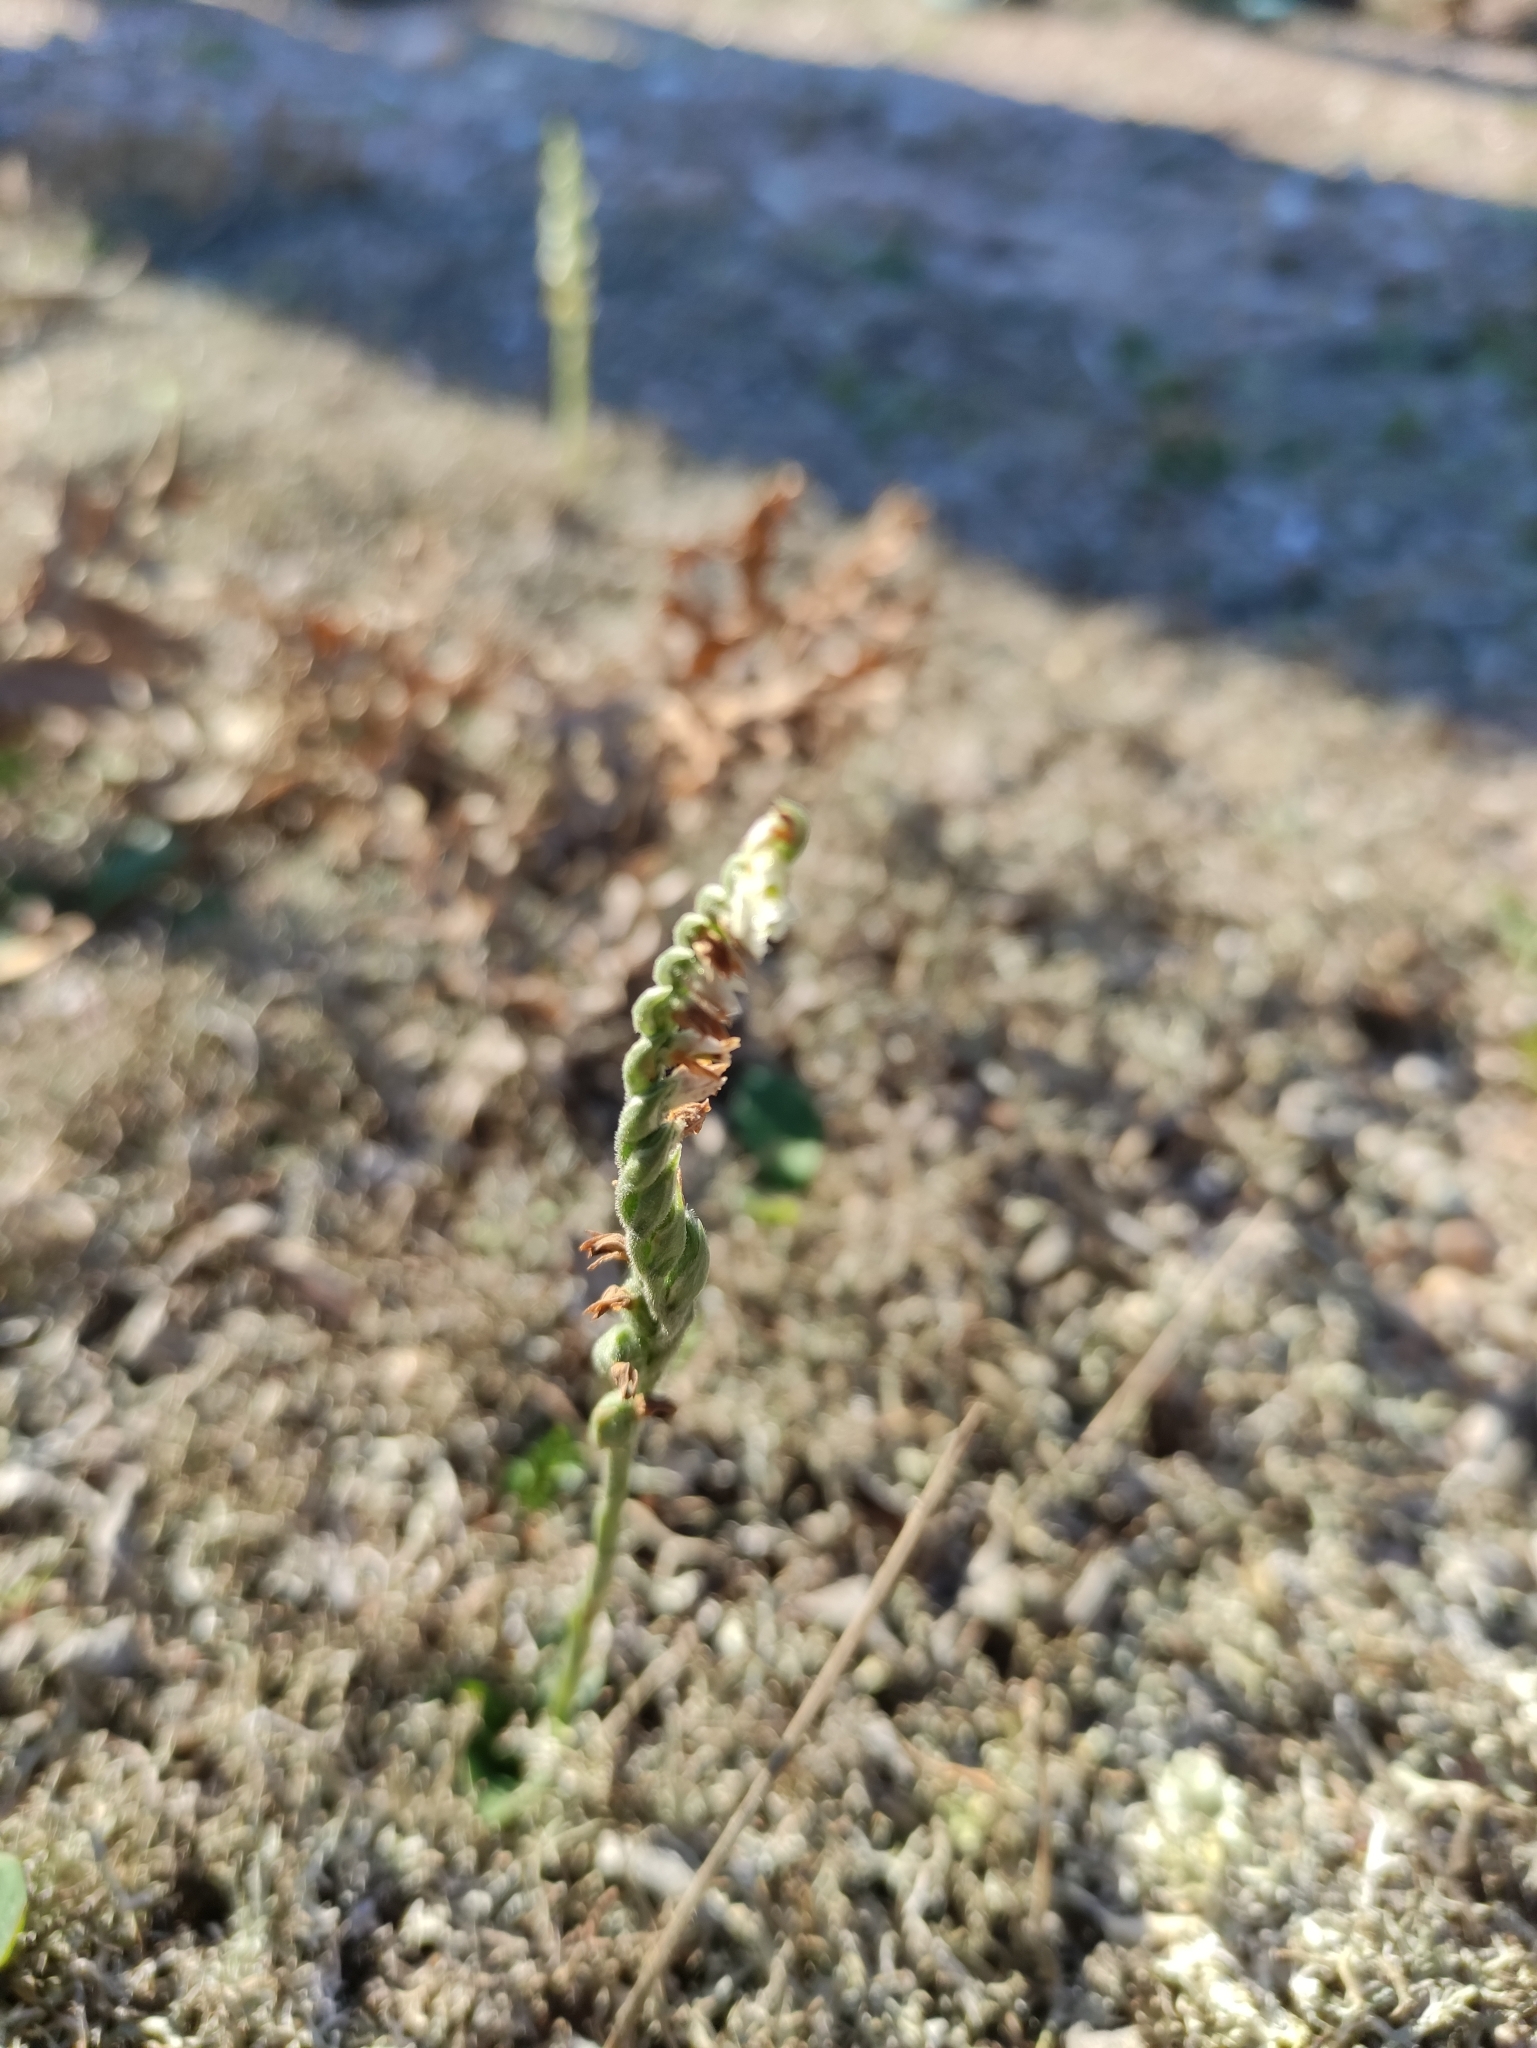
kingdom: Plantae
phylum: Tracheophyta
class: Liliopsida
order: Asparagales
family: Orchidaceae
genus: Spiranthes
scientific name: Spiranthes spiralis
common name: Autumn lady's-tresses
